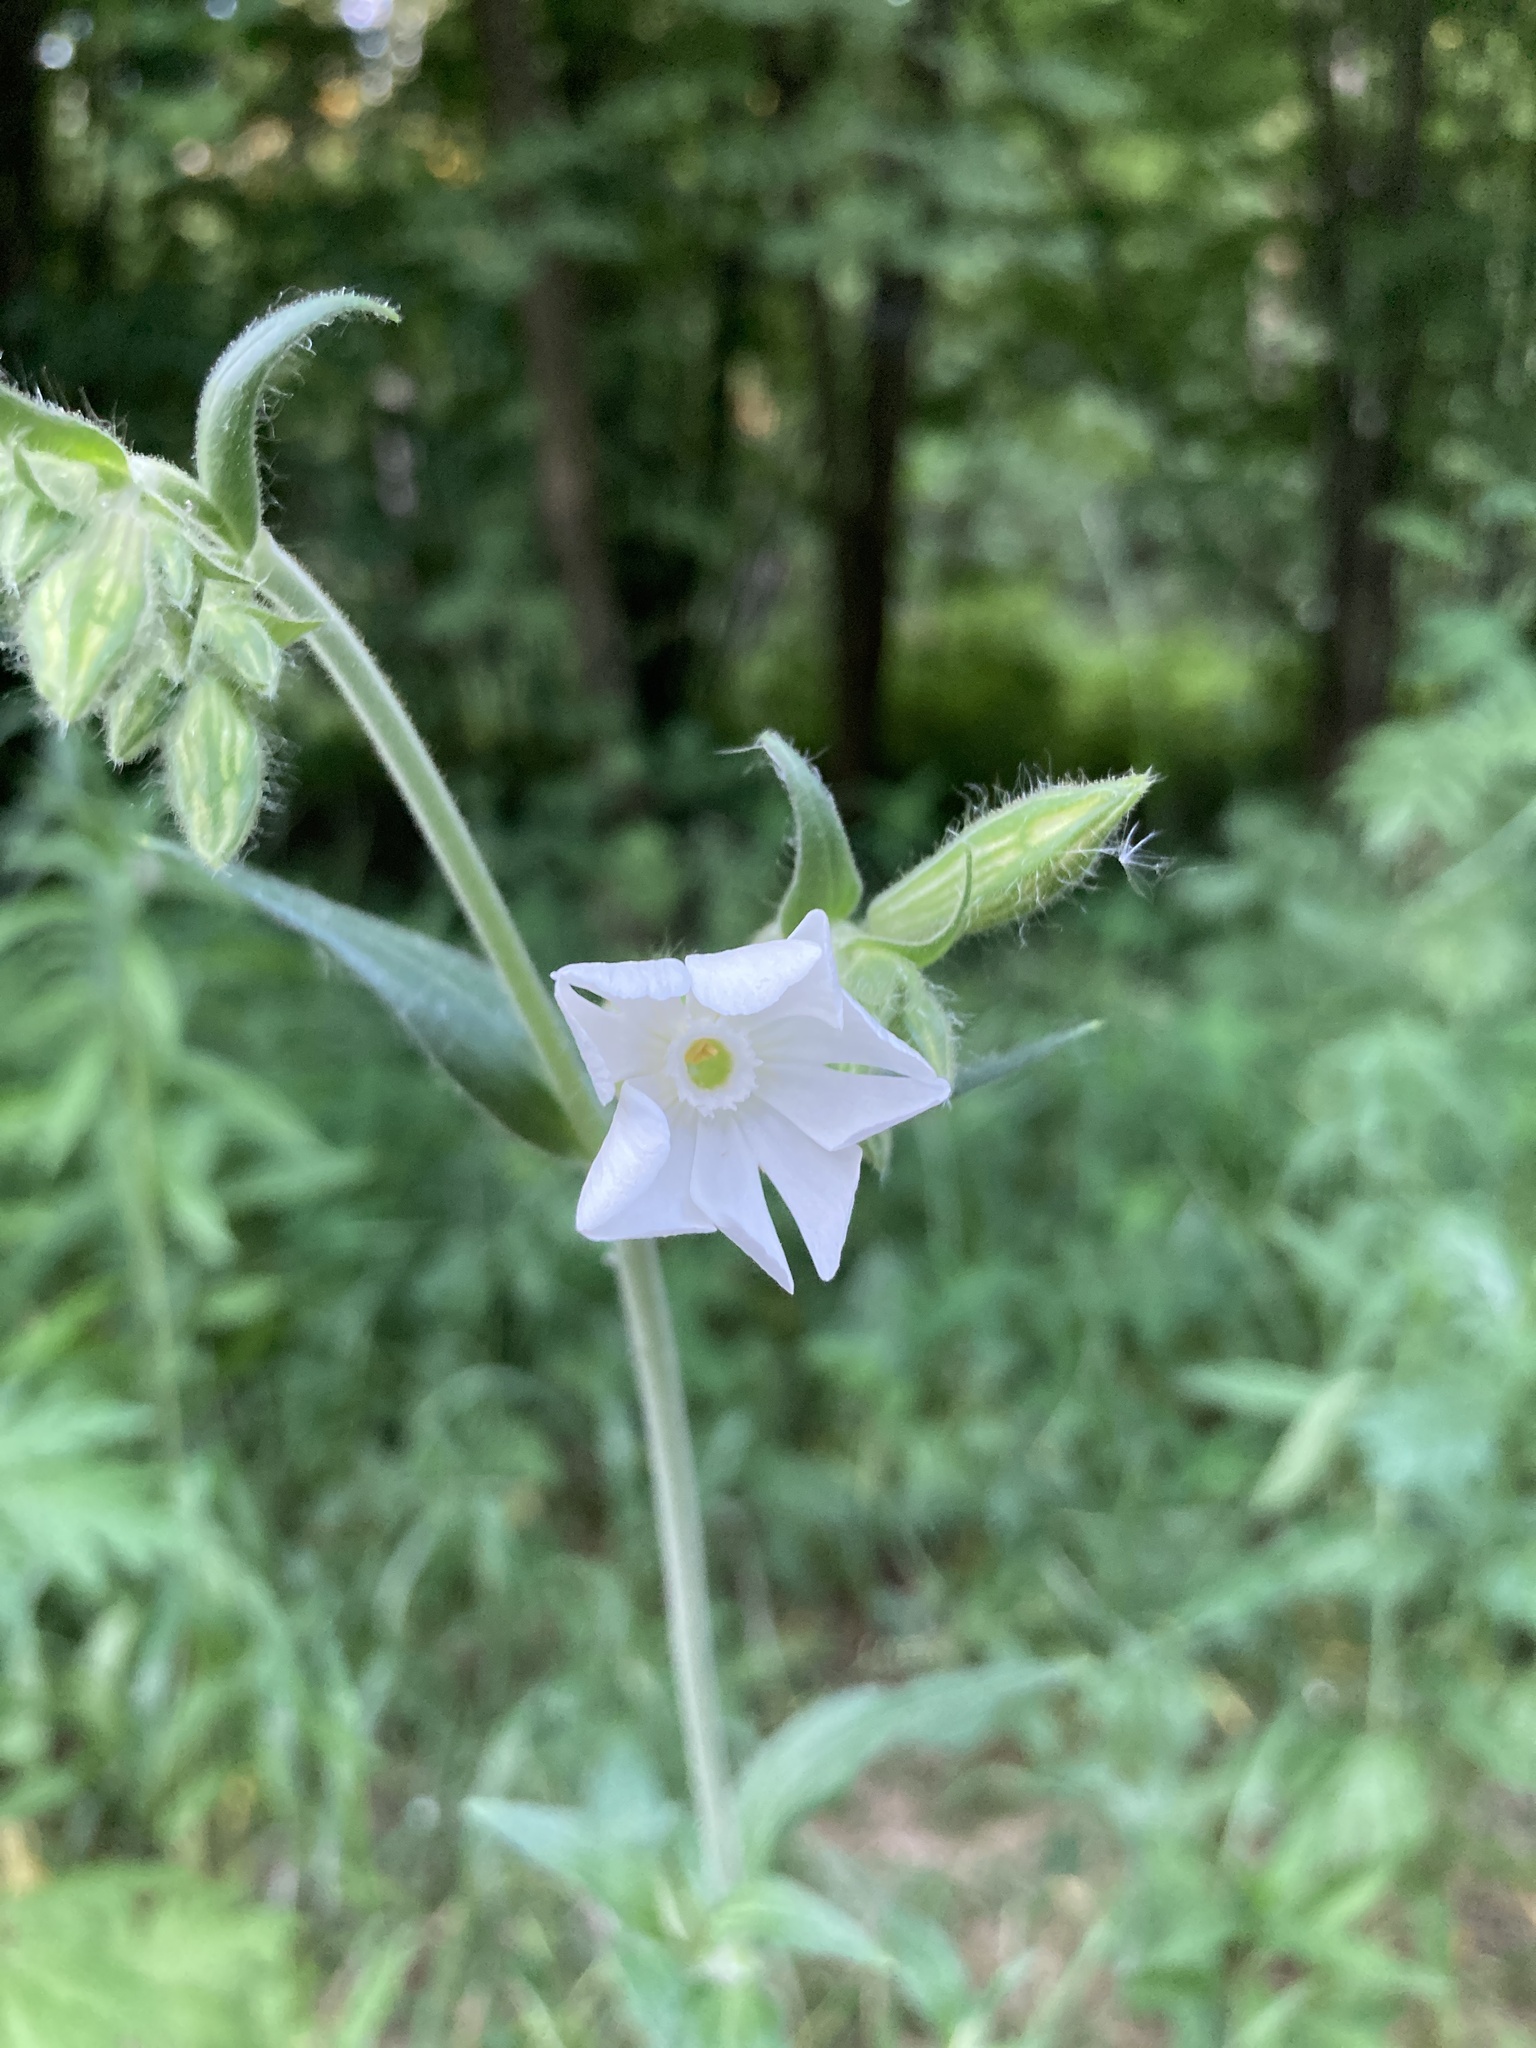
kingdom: Plantae
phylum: Tracheophyta
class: Magnoliopsida
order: Caryophyllales
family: Caryophyllaceae
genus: Silene
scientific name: Silene latifolia
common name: White campion
